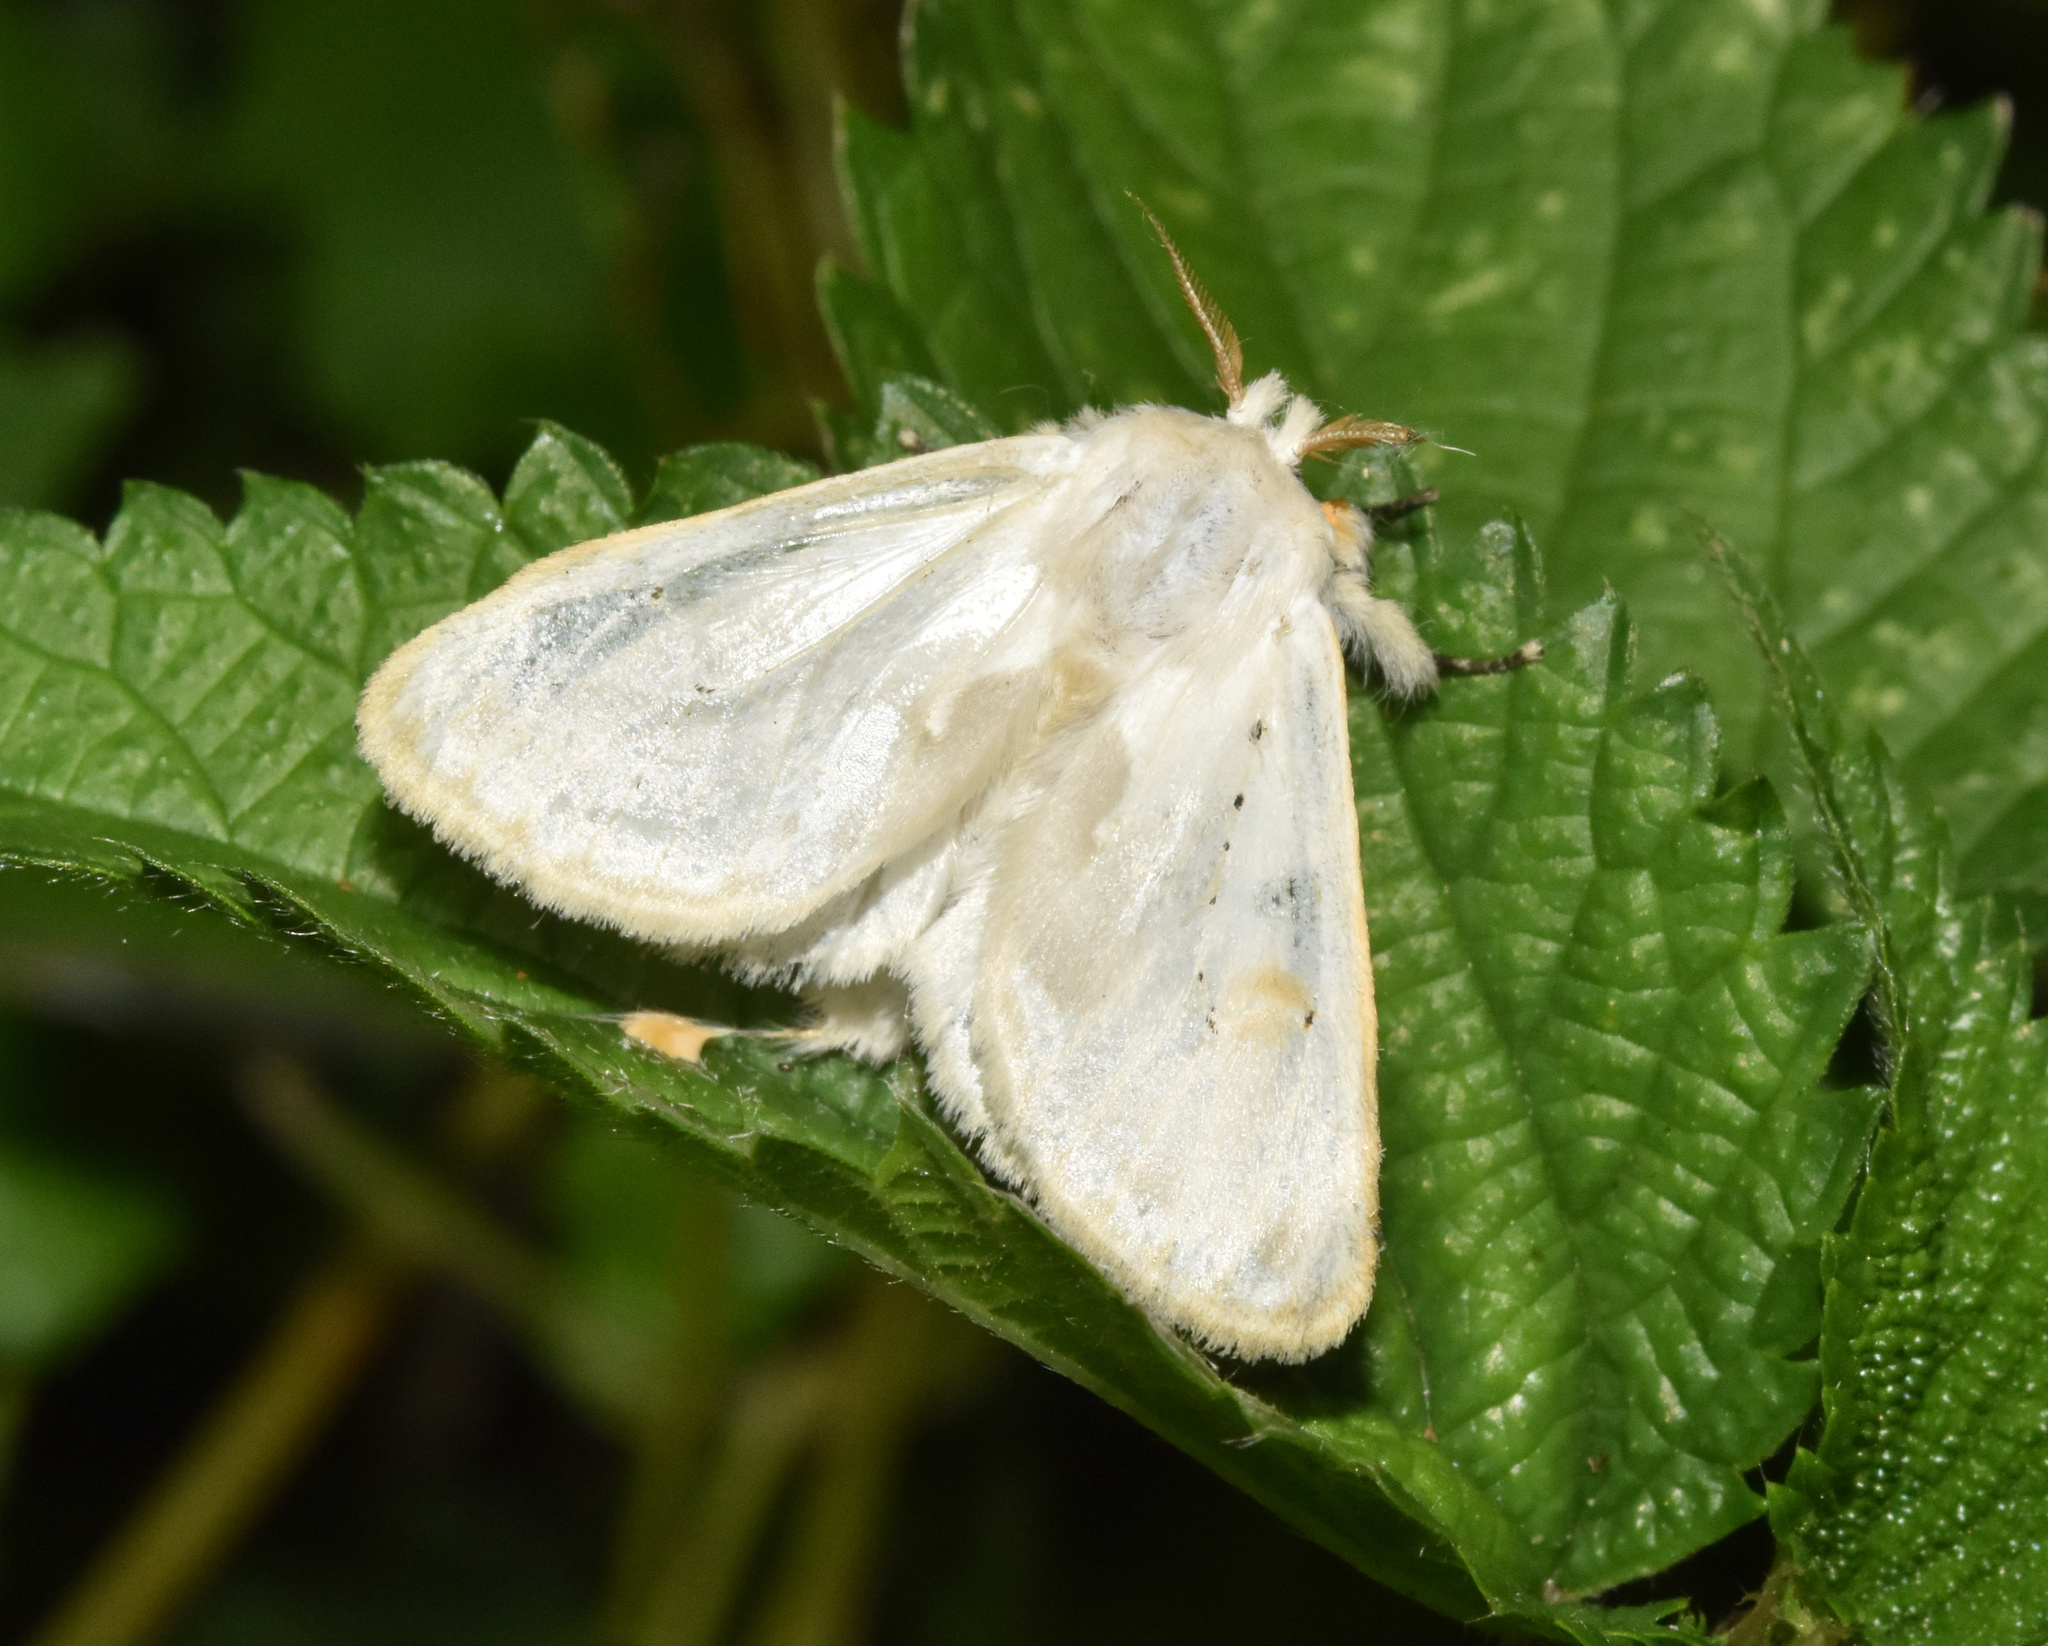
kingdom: Animalia
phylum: Arthropoda
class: Insecta
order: Lepidoptera
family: Erebidae
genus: Naroma
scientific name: Naroma varipes
